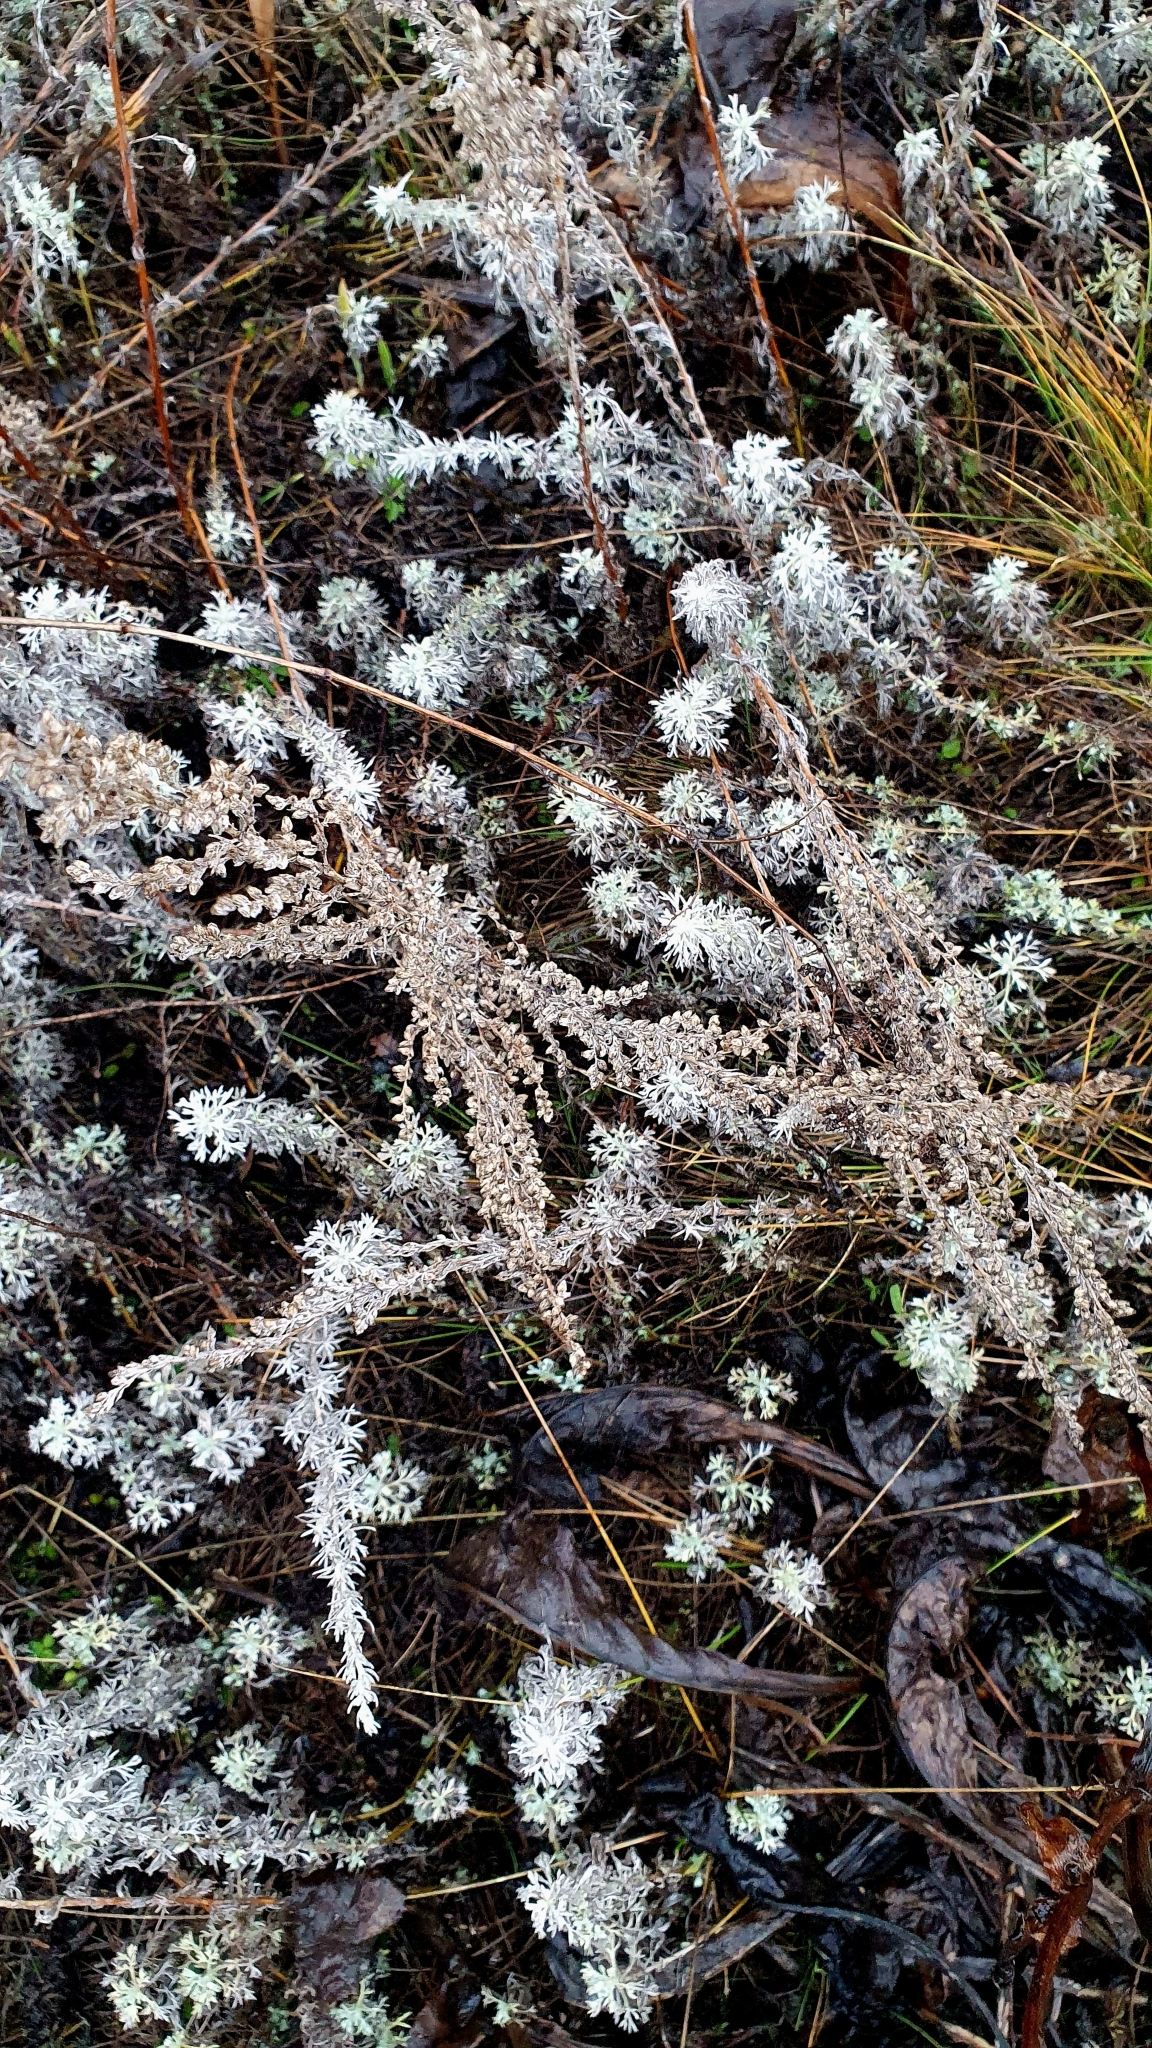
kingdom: Plantae
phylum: Tracheophyta
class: Magnoliopsida
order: Asterales
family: Asteraceae
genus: Artemisia
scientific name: Artemisia austriaca
